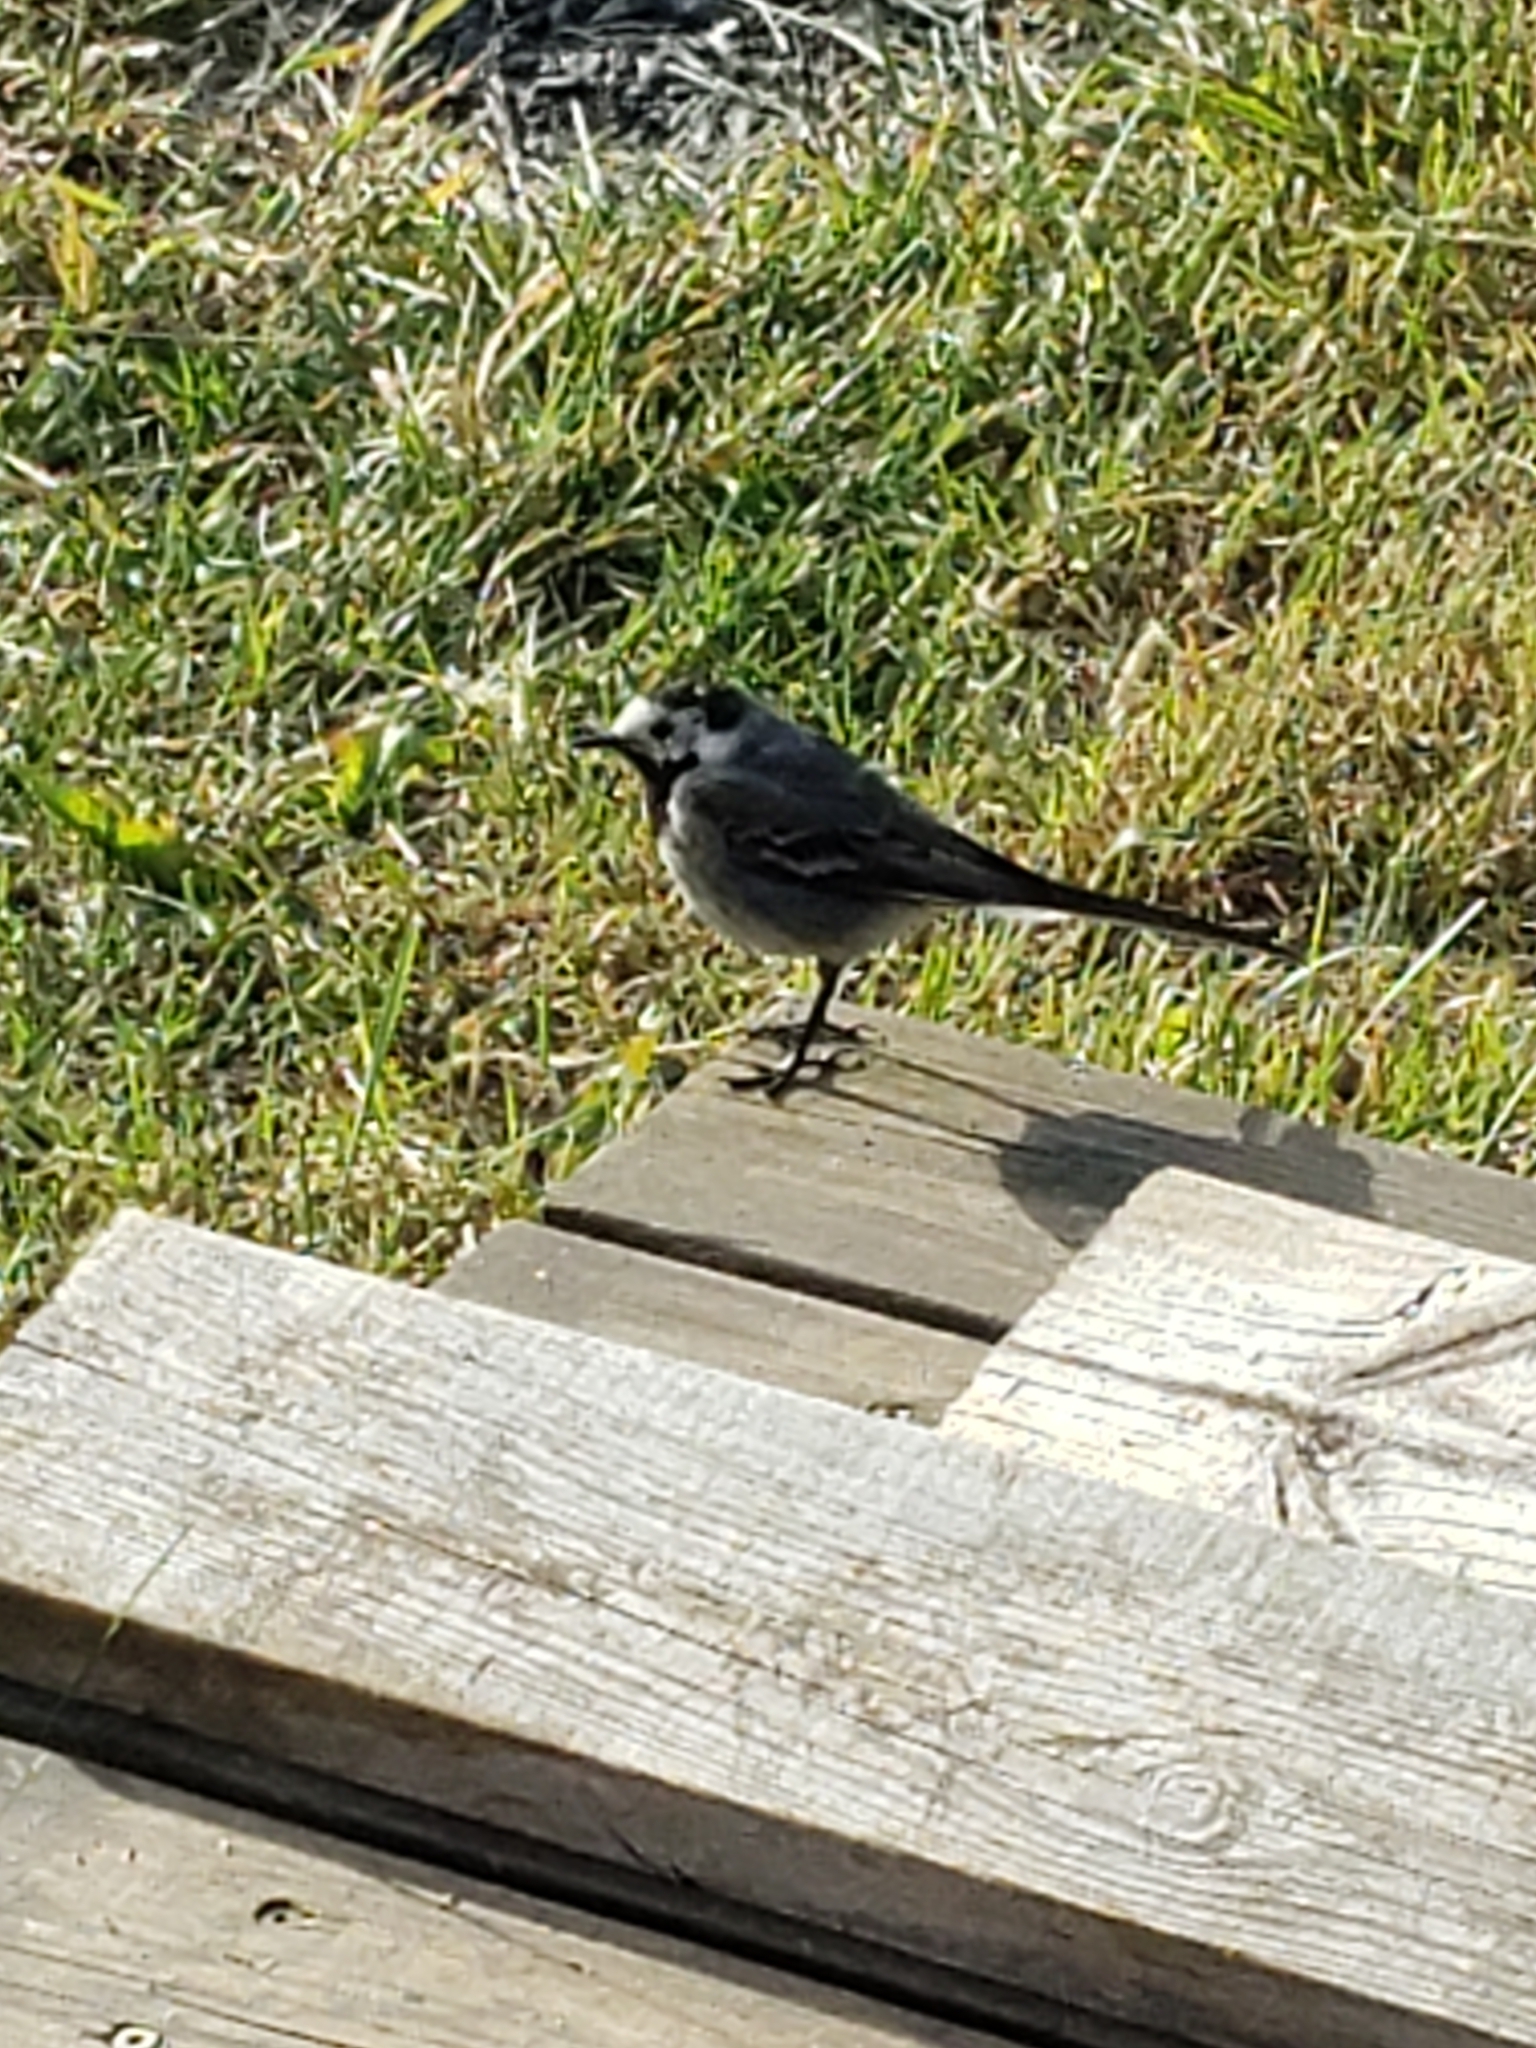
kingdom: Animalia
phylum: Chordata
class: Aves
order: Passeriformes
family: Motacillidae
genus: Motacilla
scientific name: Motacilla alba
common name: White wagtail
